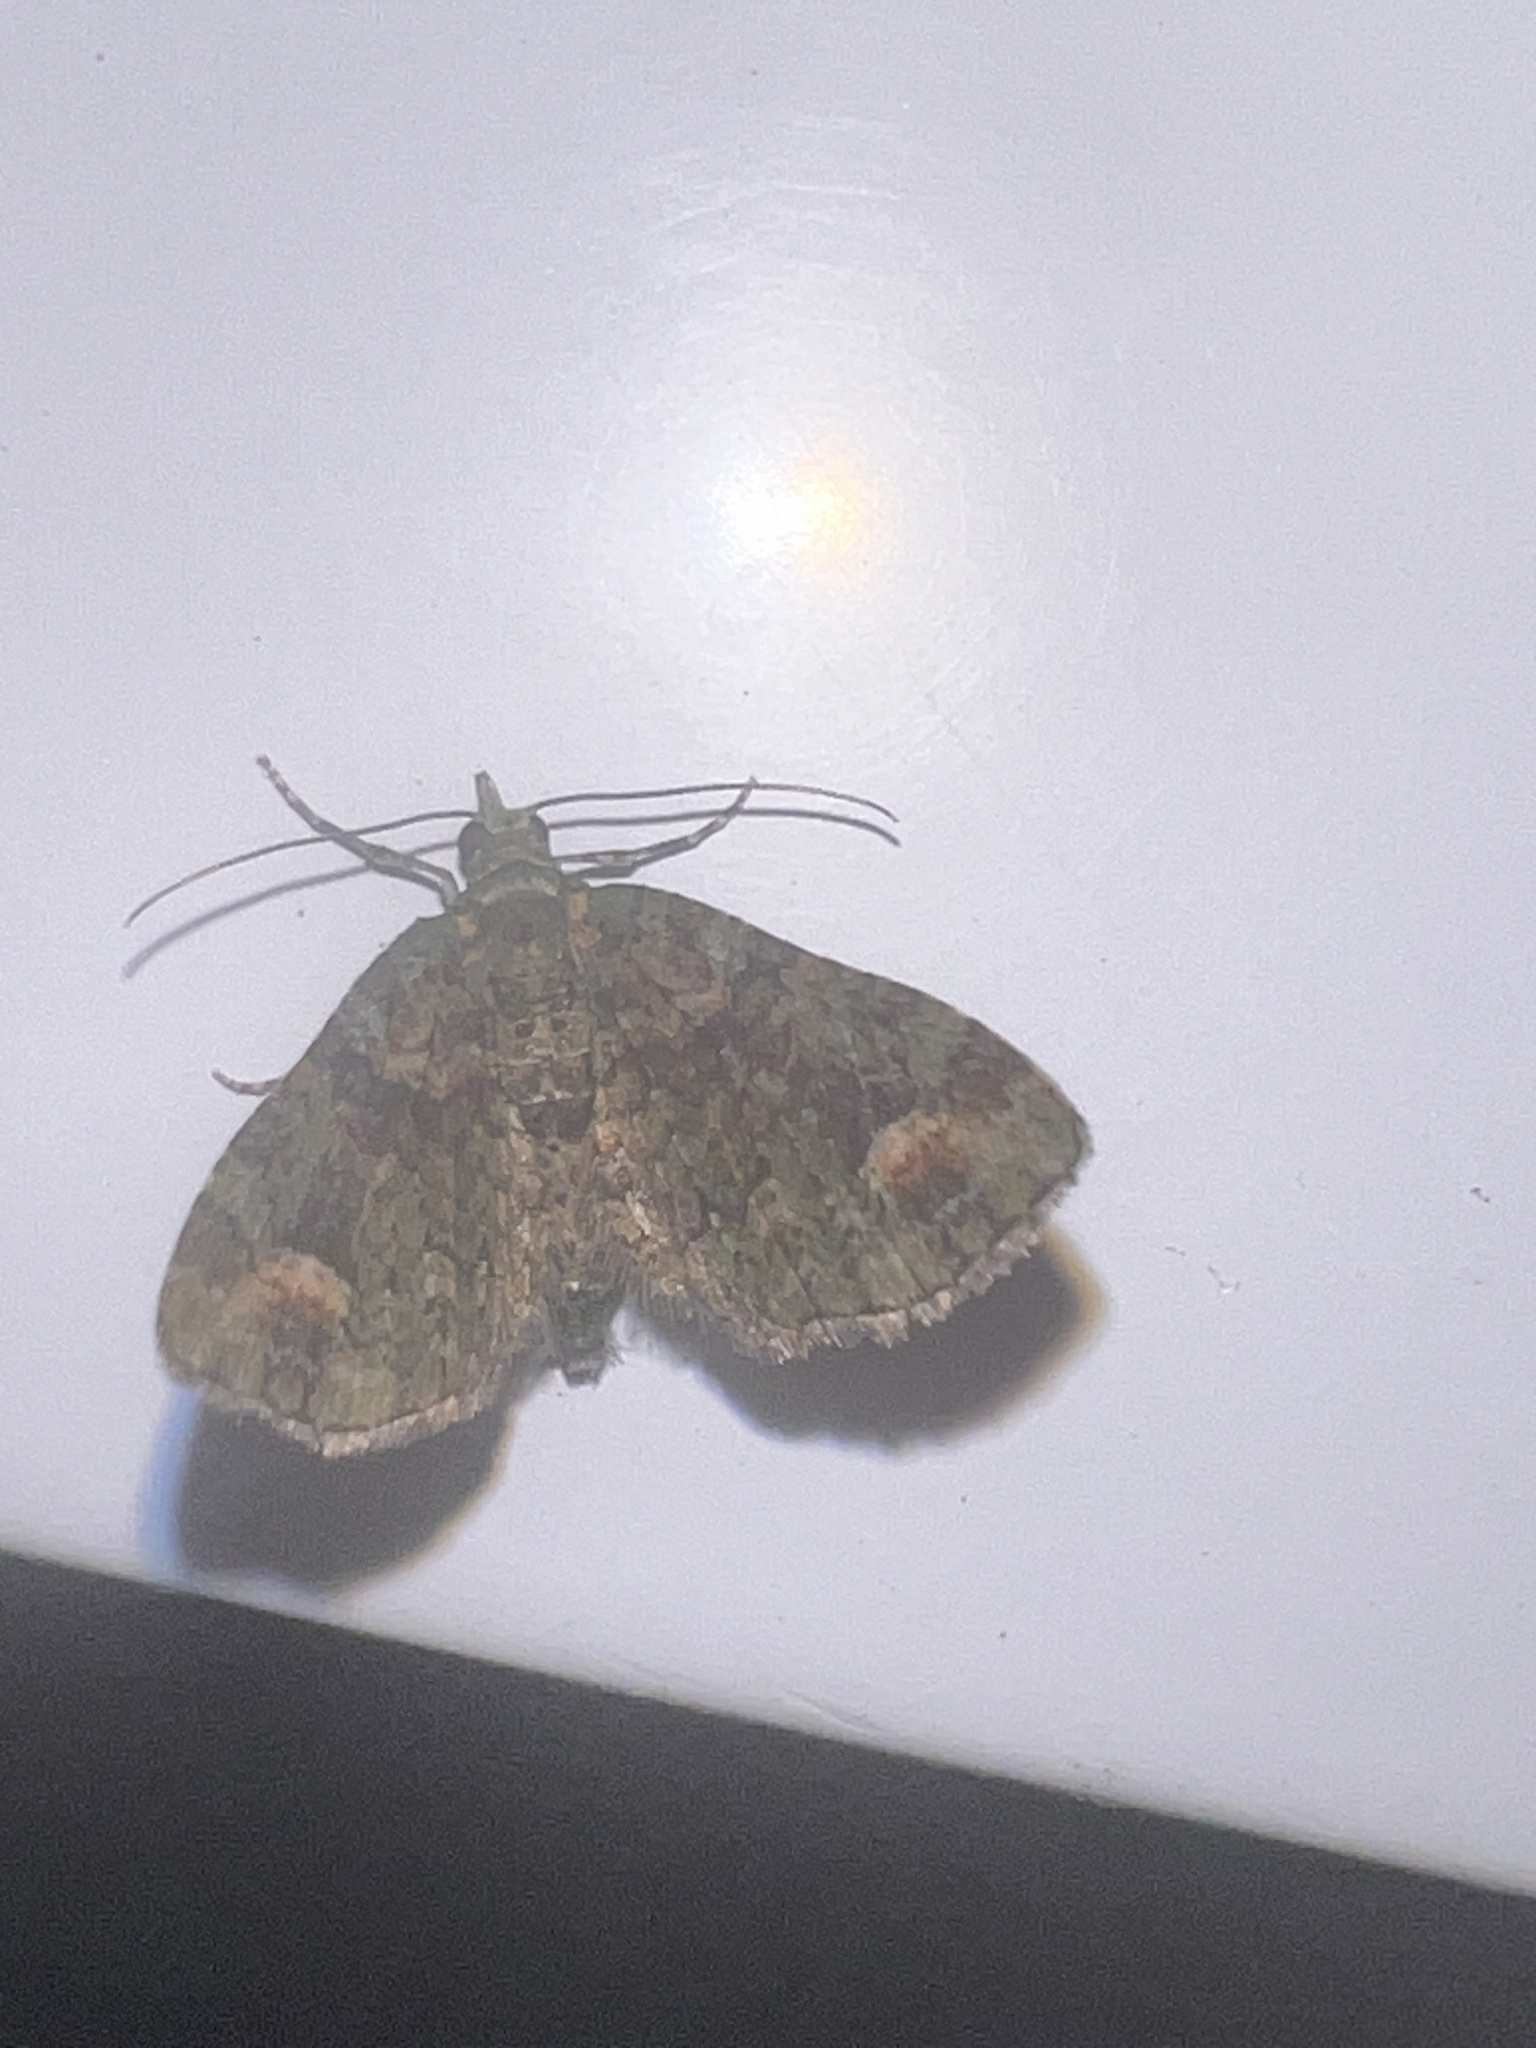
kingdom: Animalia
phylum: Arthropoda
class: Insecta
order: Lepidoptera
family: Geometridae
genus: Idaea
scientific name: Idaea mutanda
